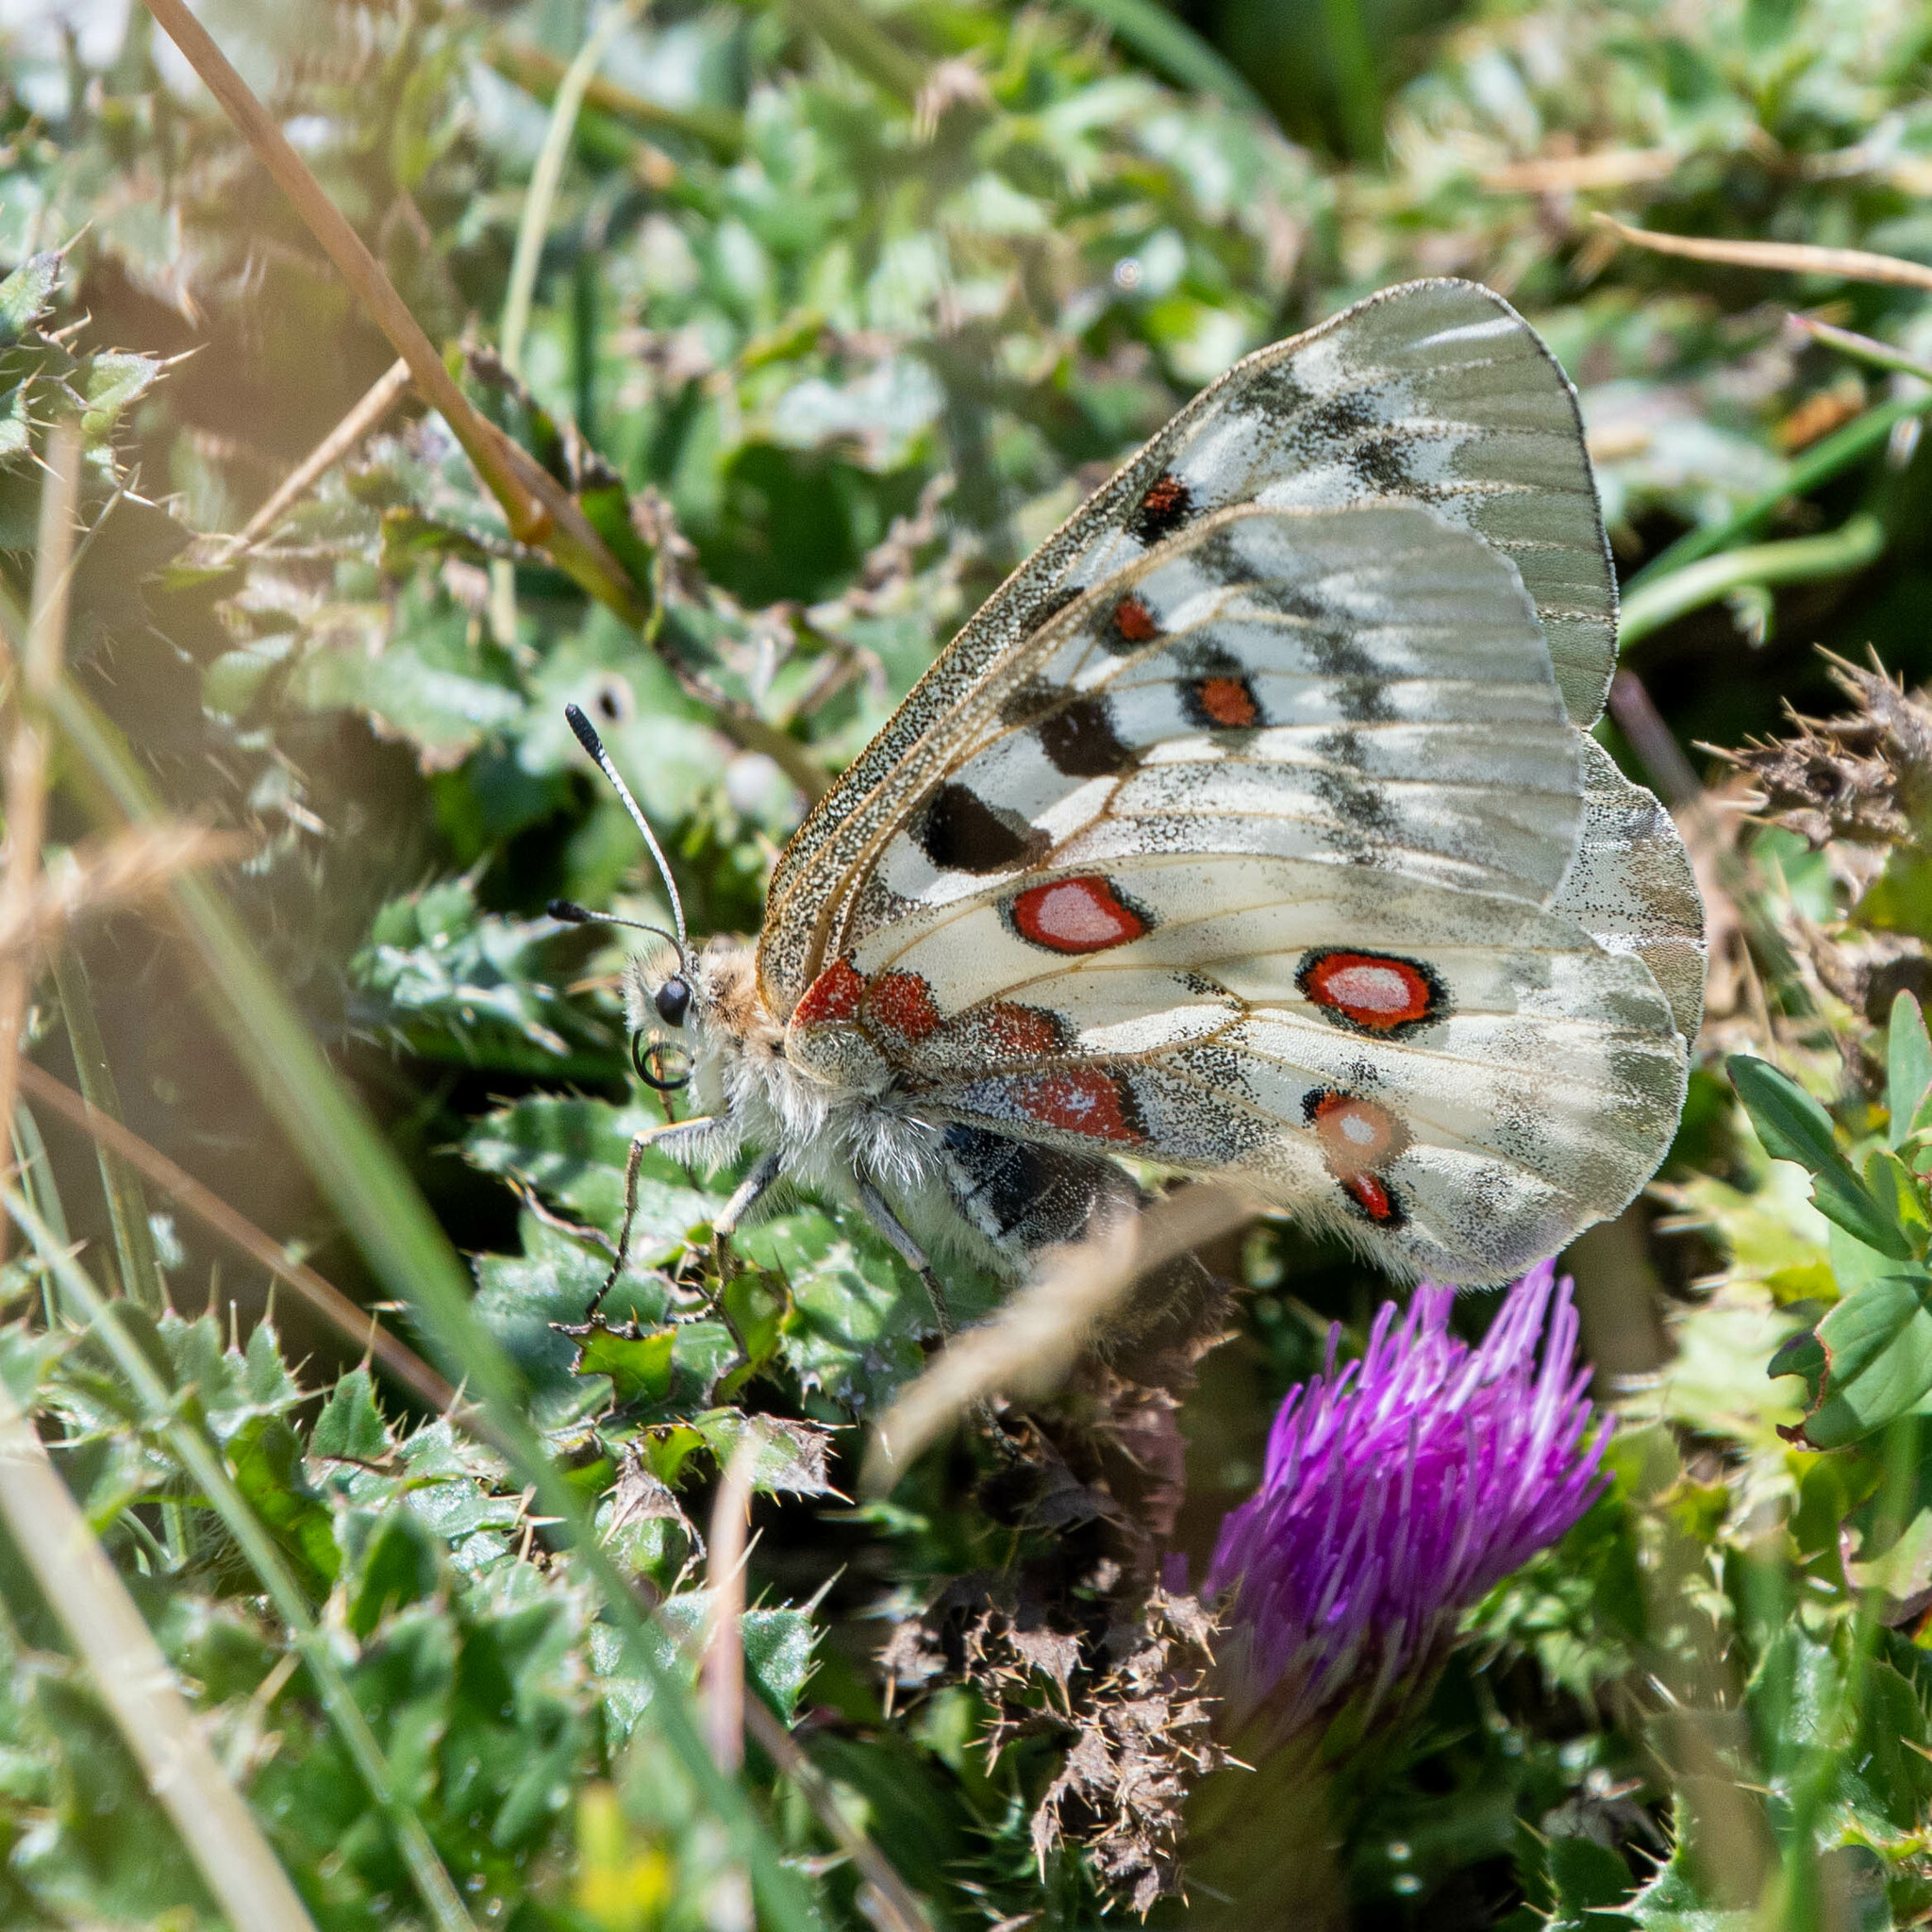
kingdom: Animalia
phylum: Arthropoda
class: Insecta
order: Lepidoptera
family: Papilionidae
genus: Parnassius
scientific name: Parnassius apollo
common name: Apollo
